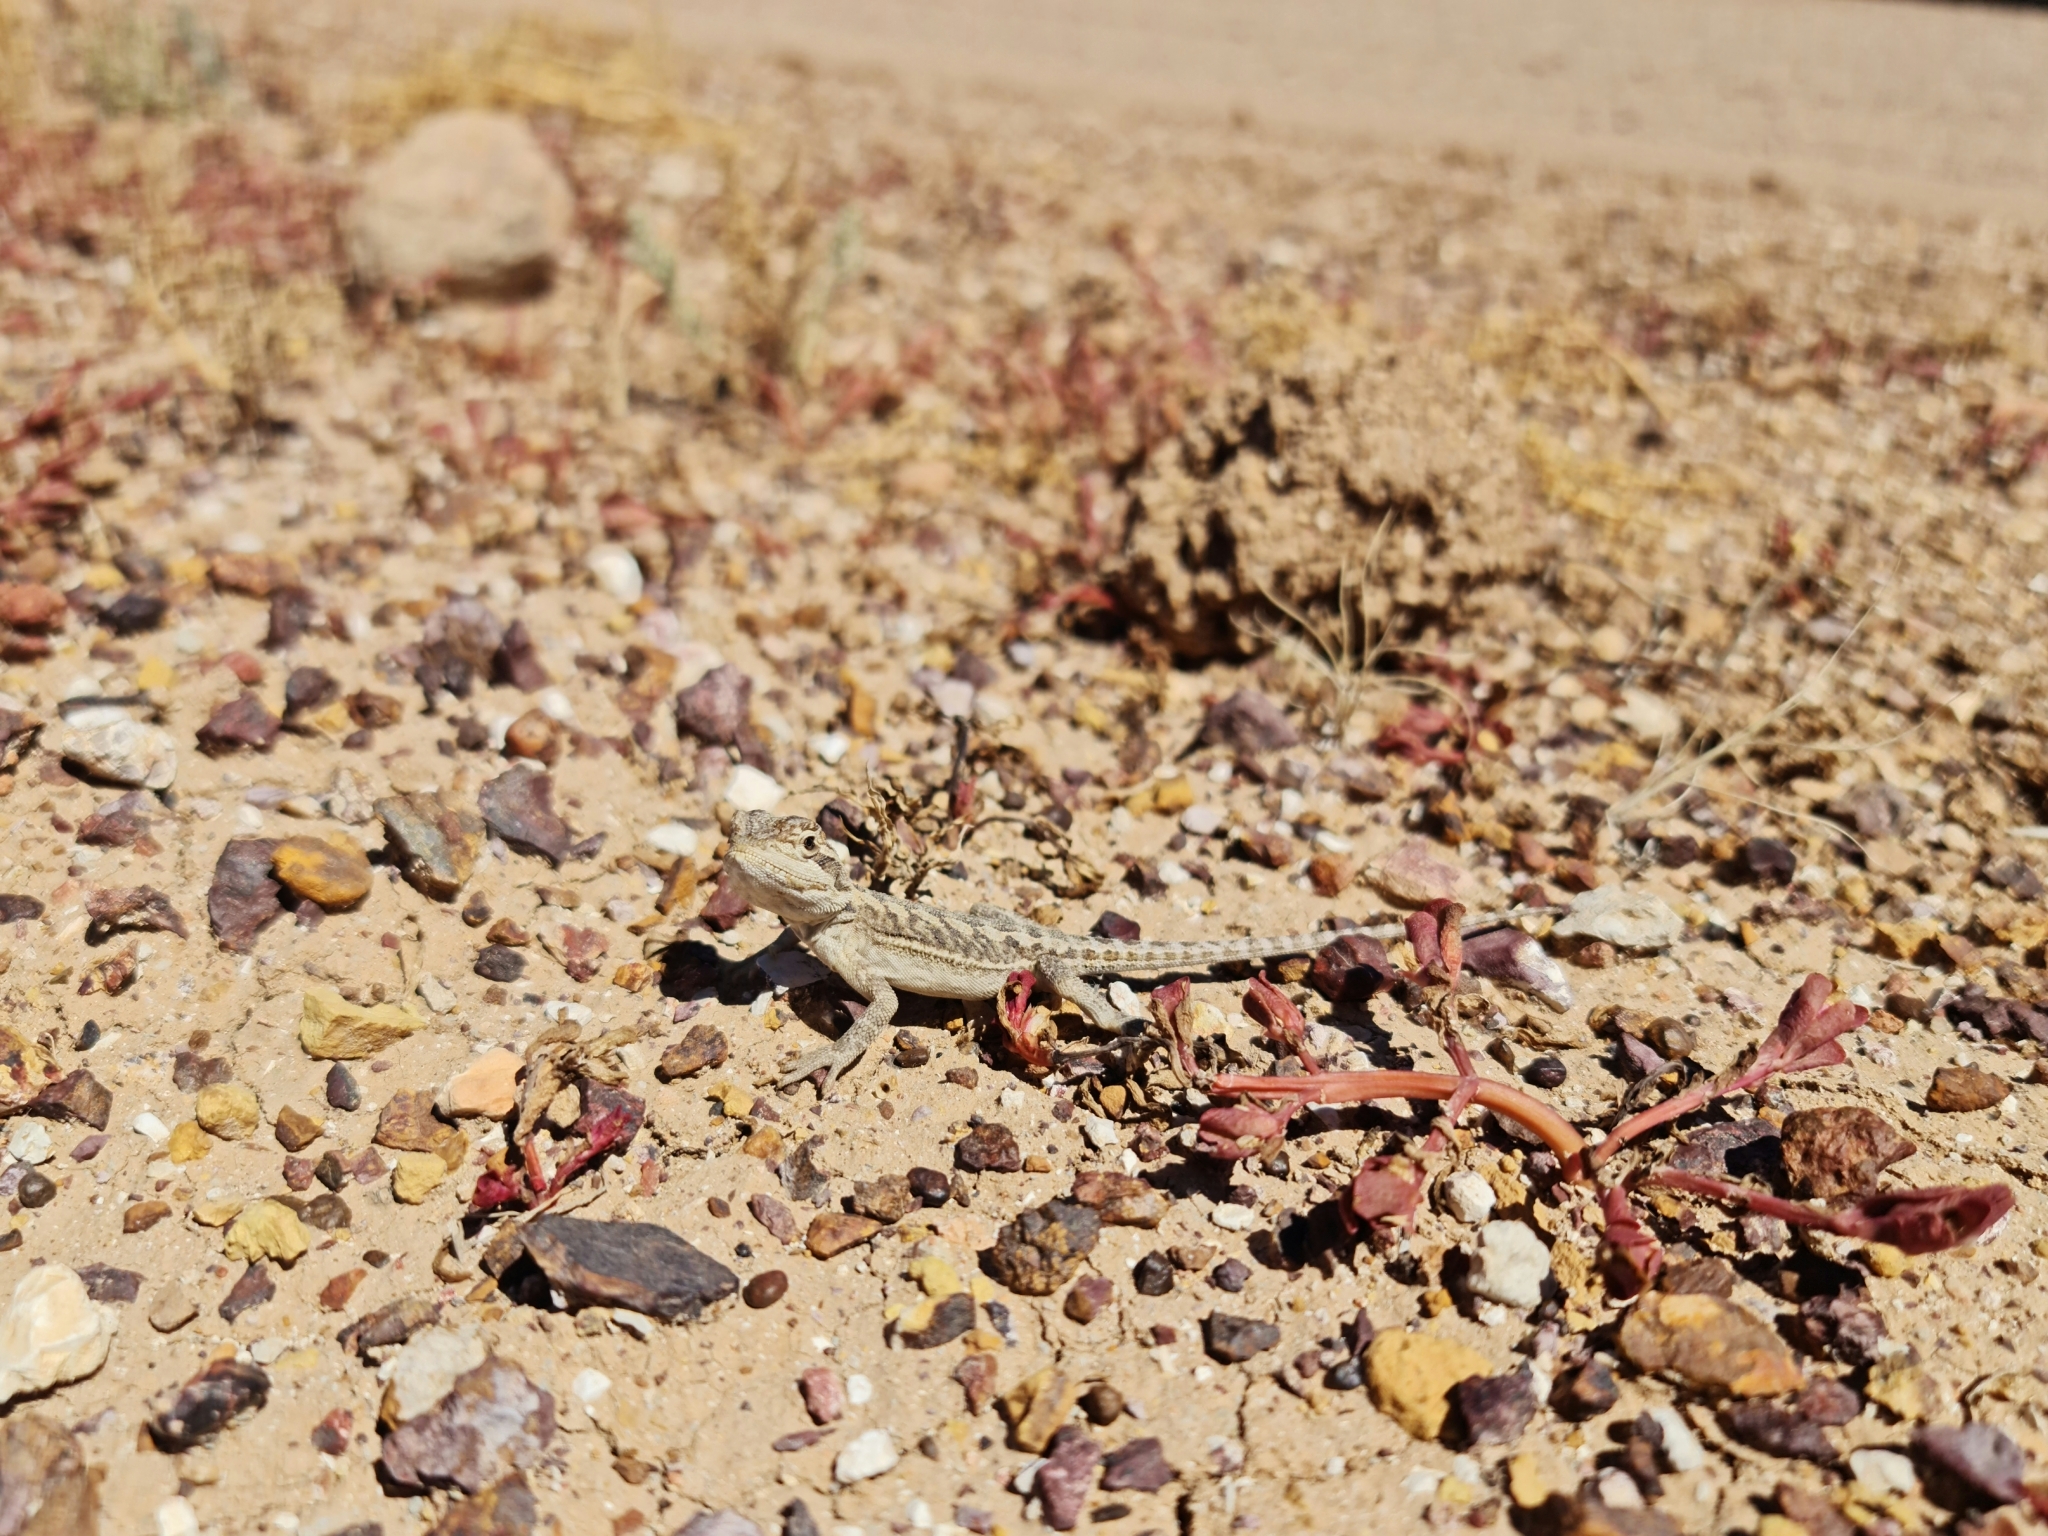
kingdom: Animalia
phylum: Chordata
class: Squamata
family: Agamidae
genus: Pogona
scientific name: Pogona vitticeps
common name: Central bearded dragon
